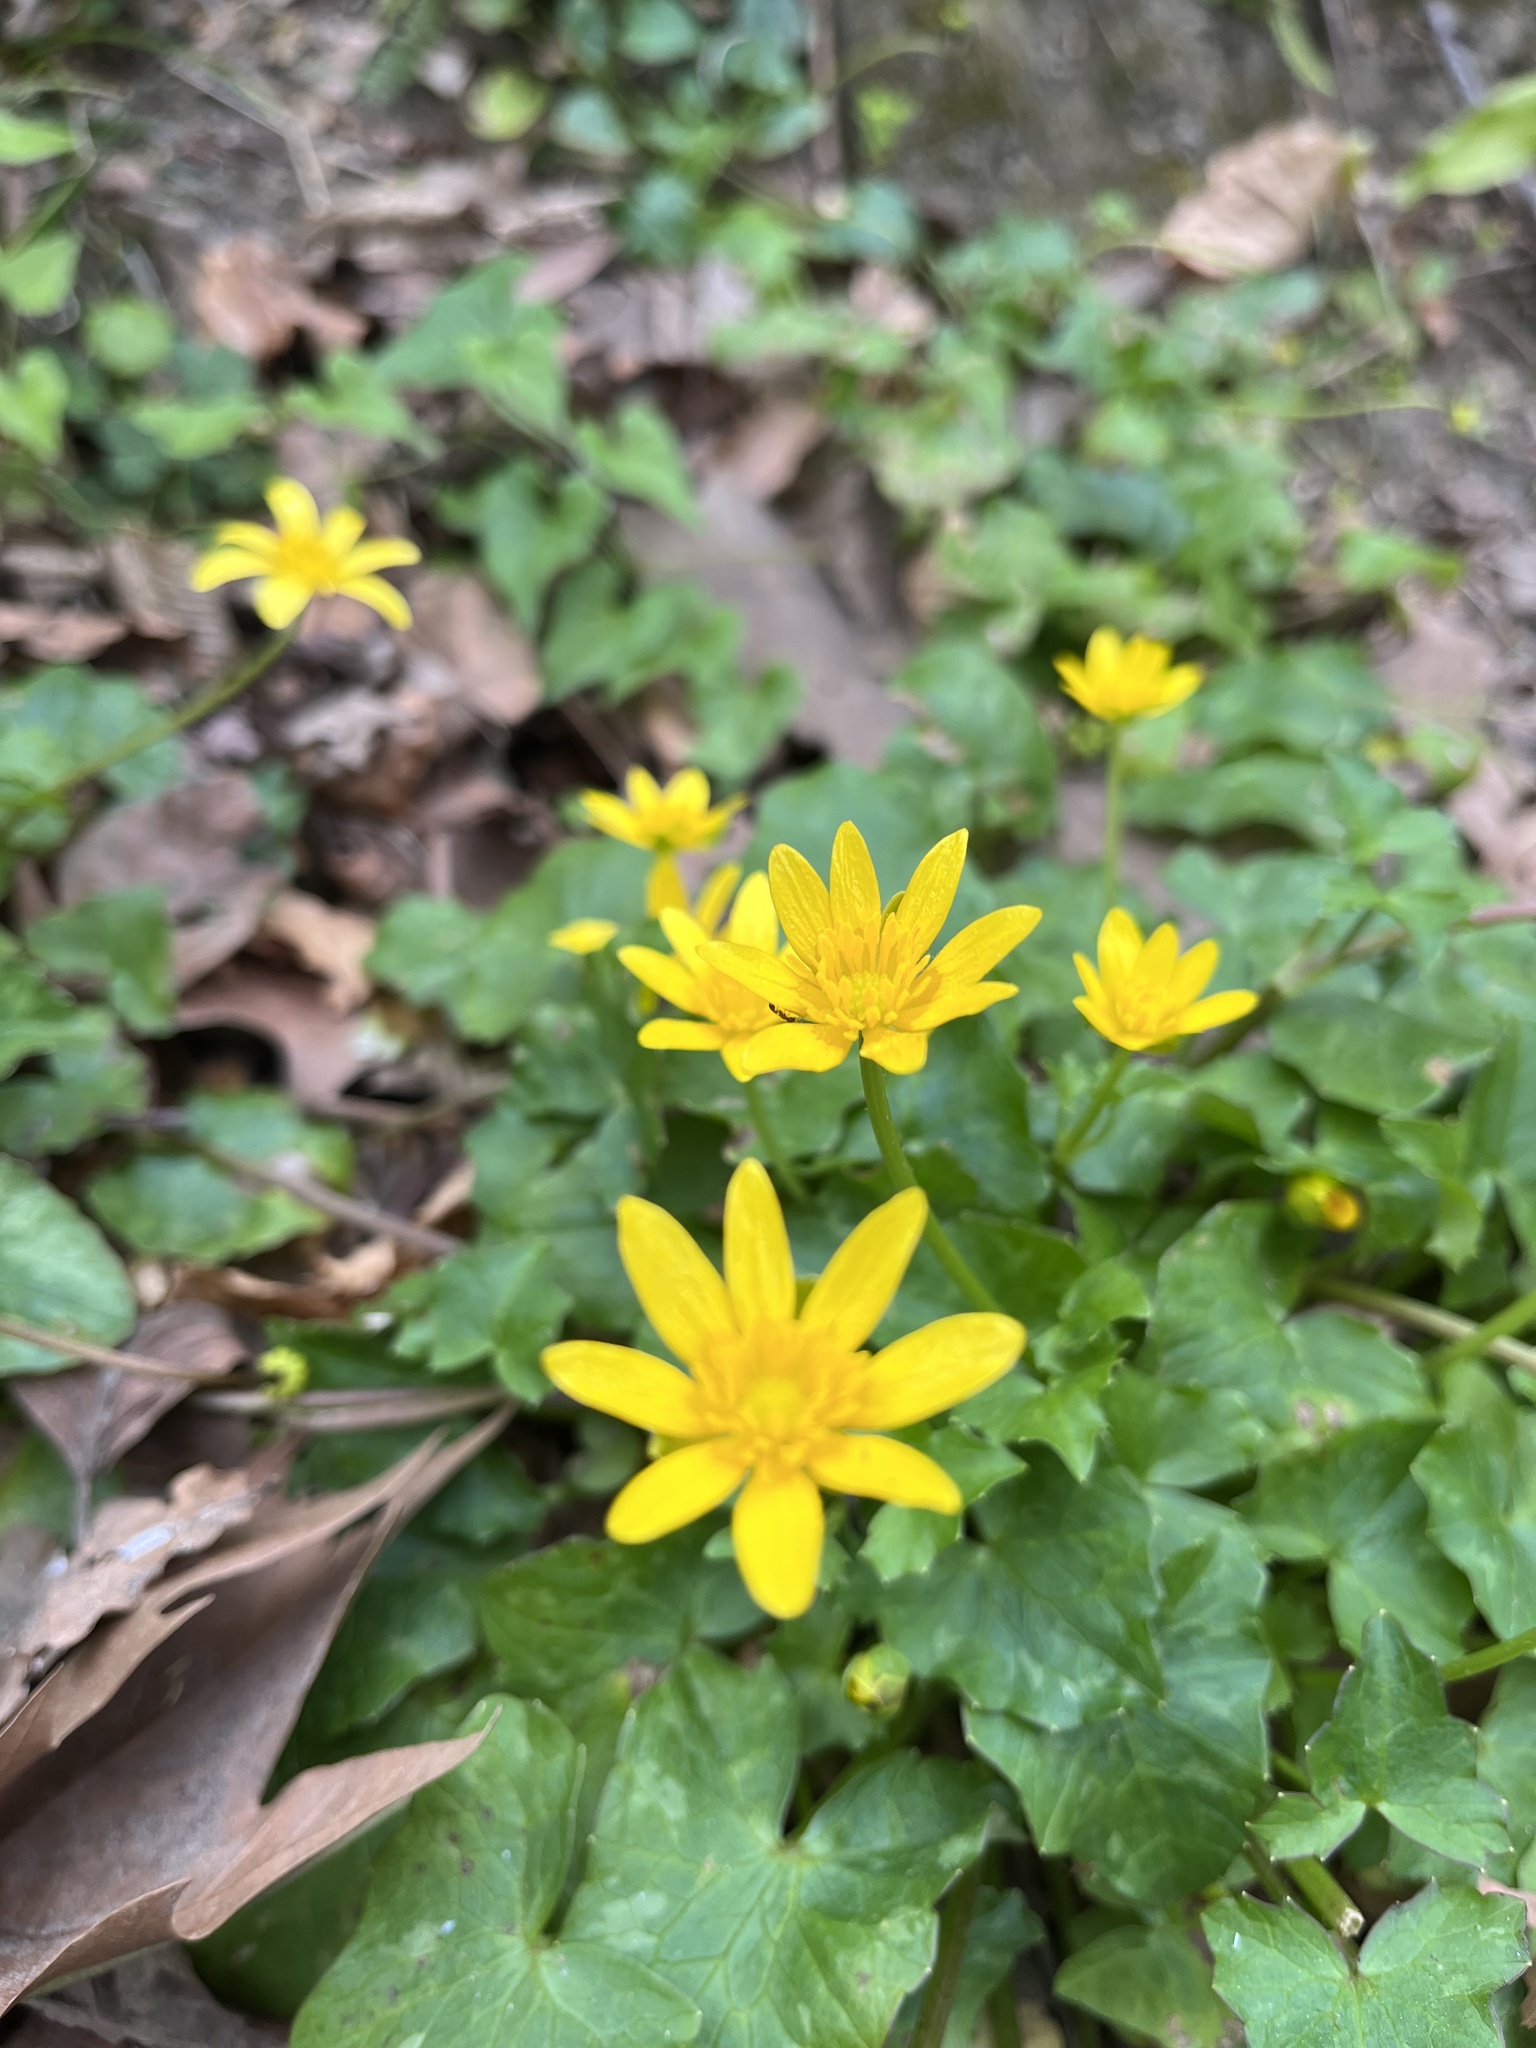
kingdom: Plantae
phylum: Tracheophyta
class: Magnoliopsida
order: Ranunculales
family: Ranunculaceae
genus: Ficaria
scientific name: Ficaria verna
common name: Lesser celandine
